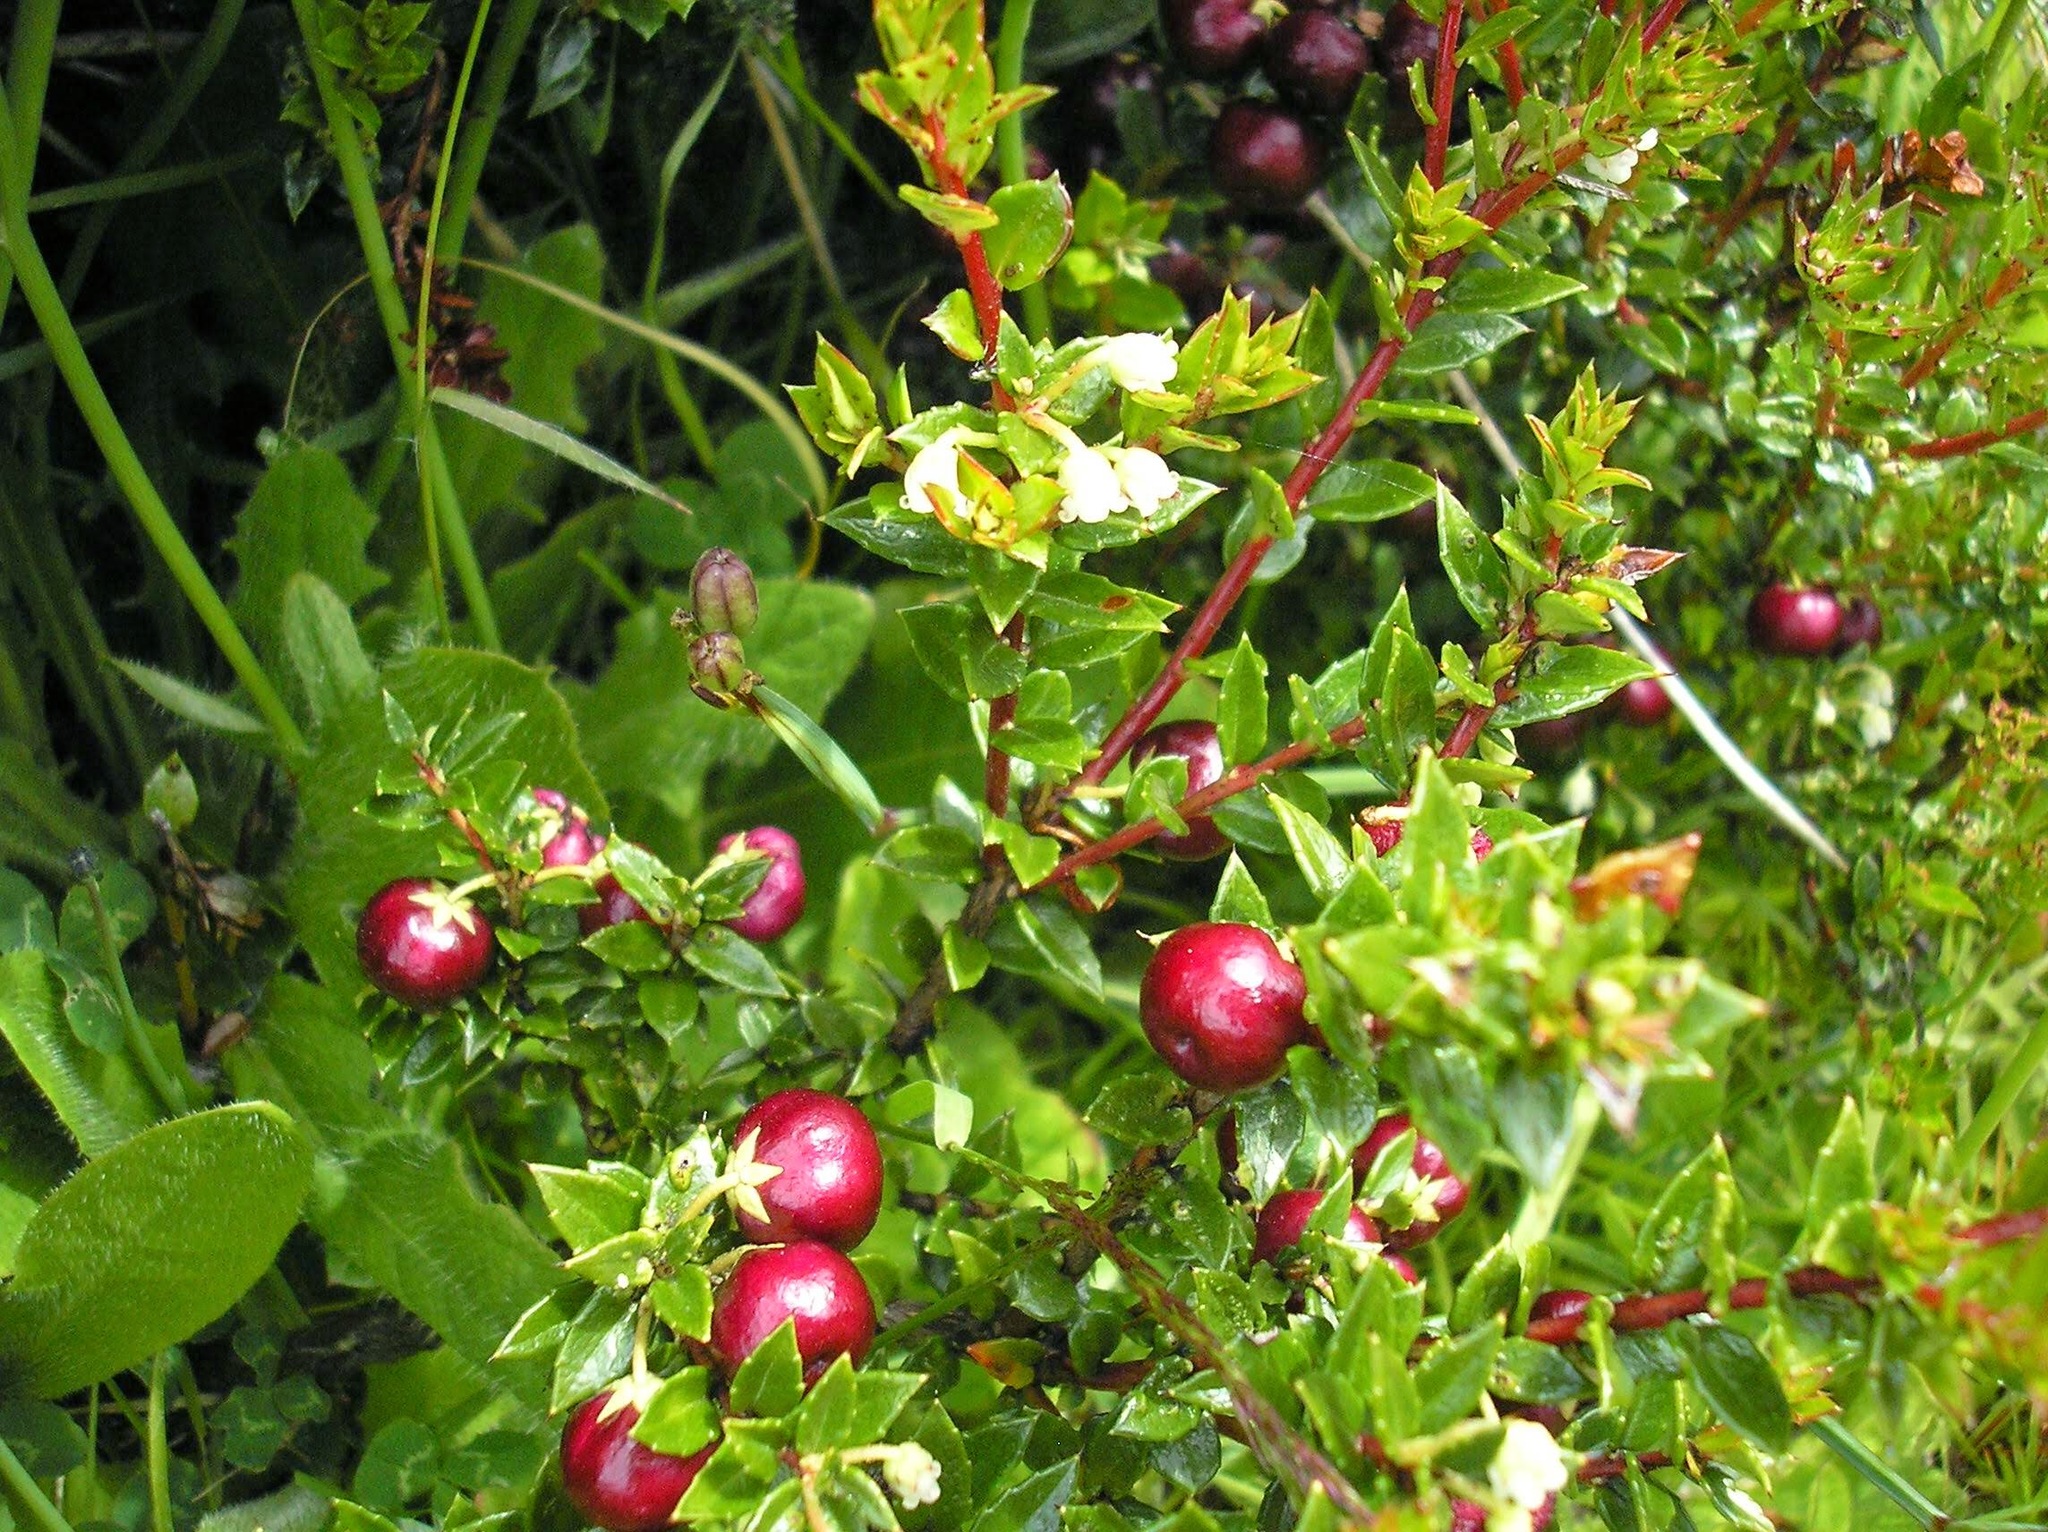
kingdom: Plantae
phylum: Tracheophyta
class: Magnoliopsida
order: Ericales
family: Ericaceae
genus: Gaultheria
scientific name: Gaultheria mucronata
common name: Prickly heath
